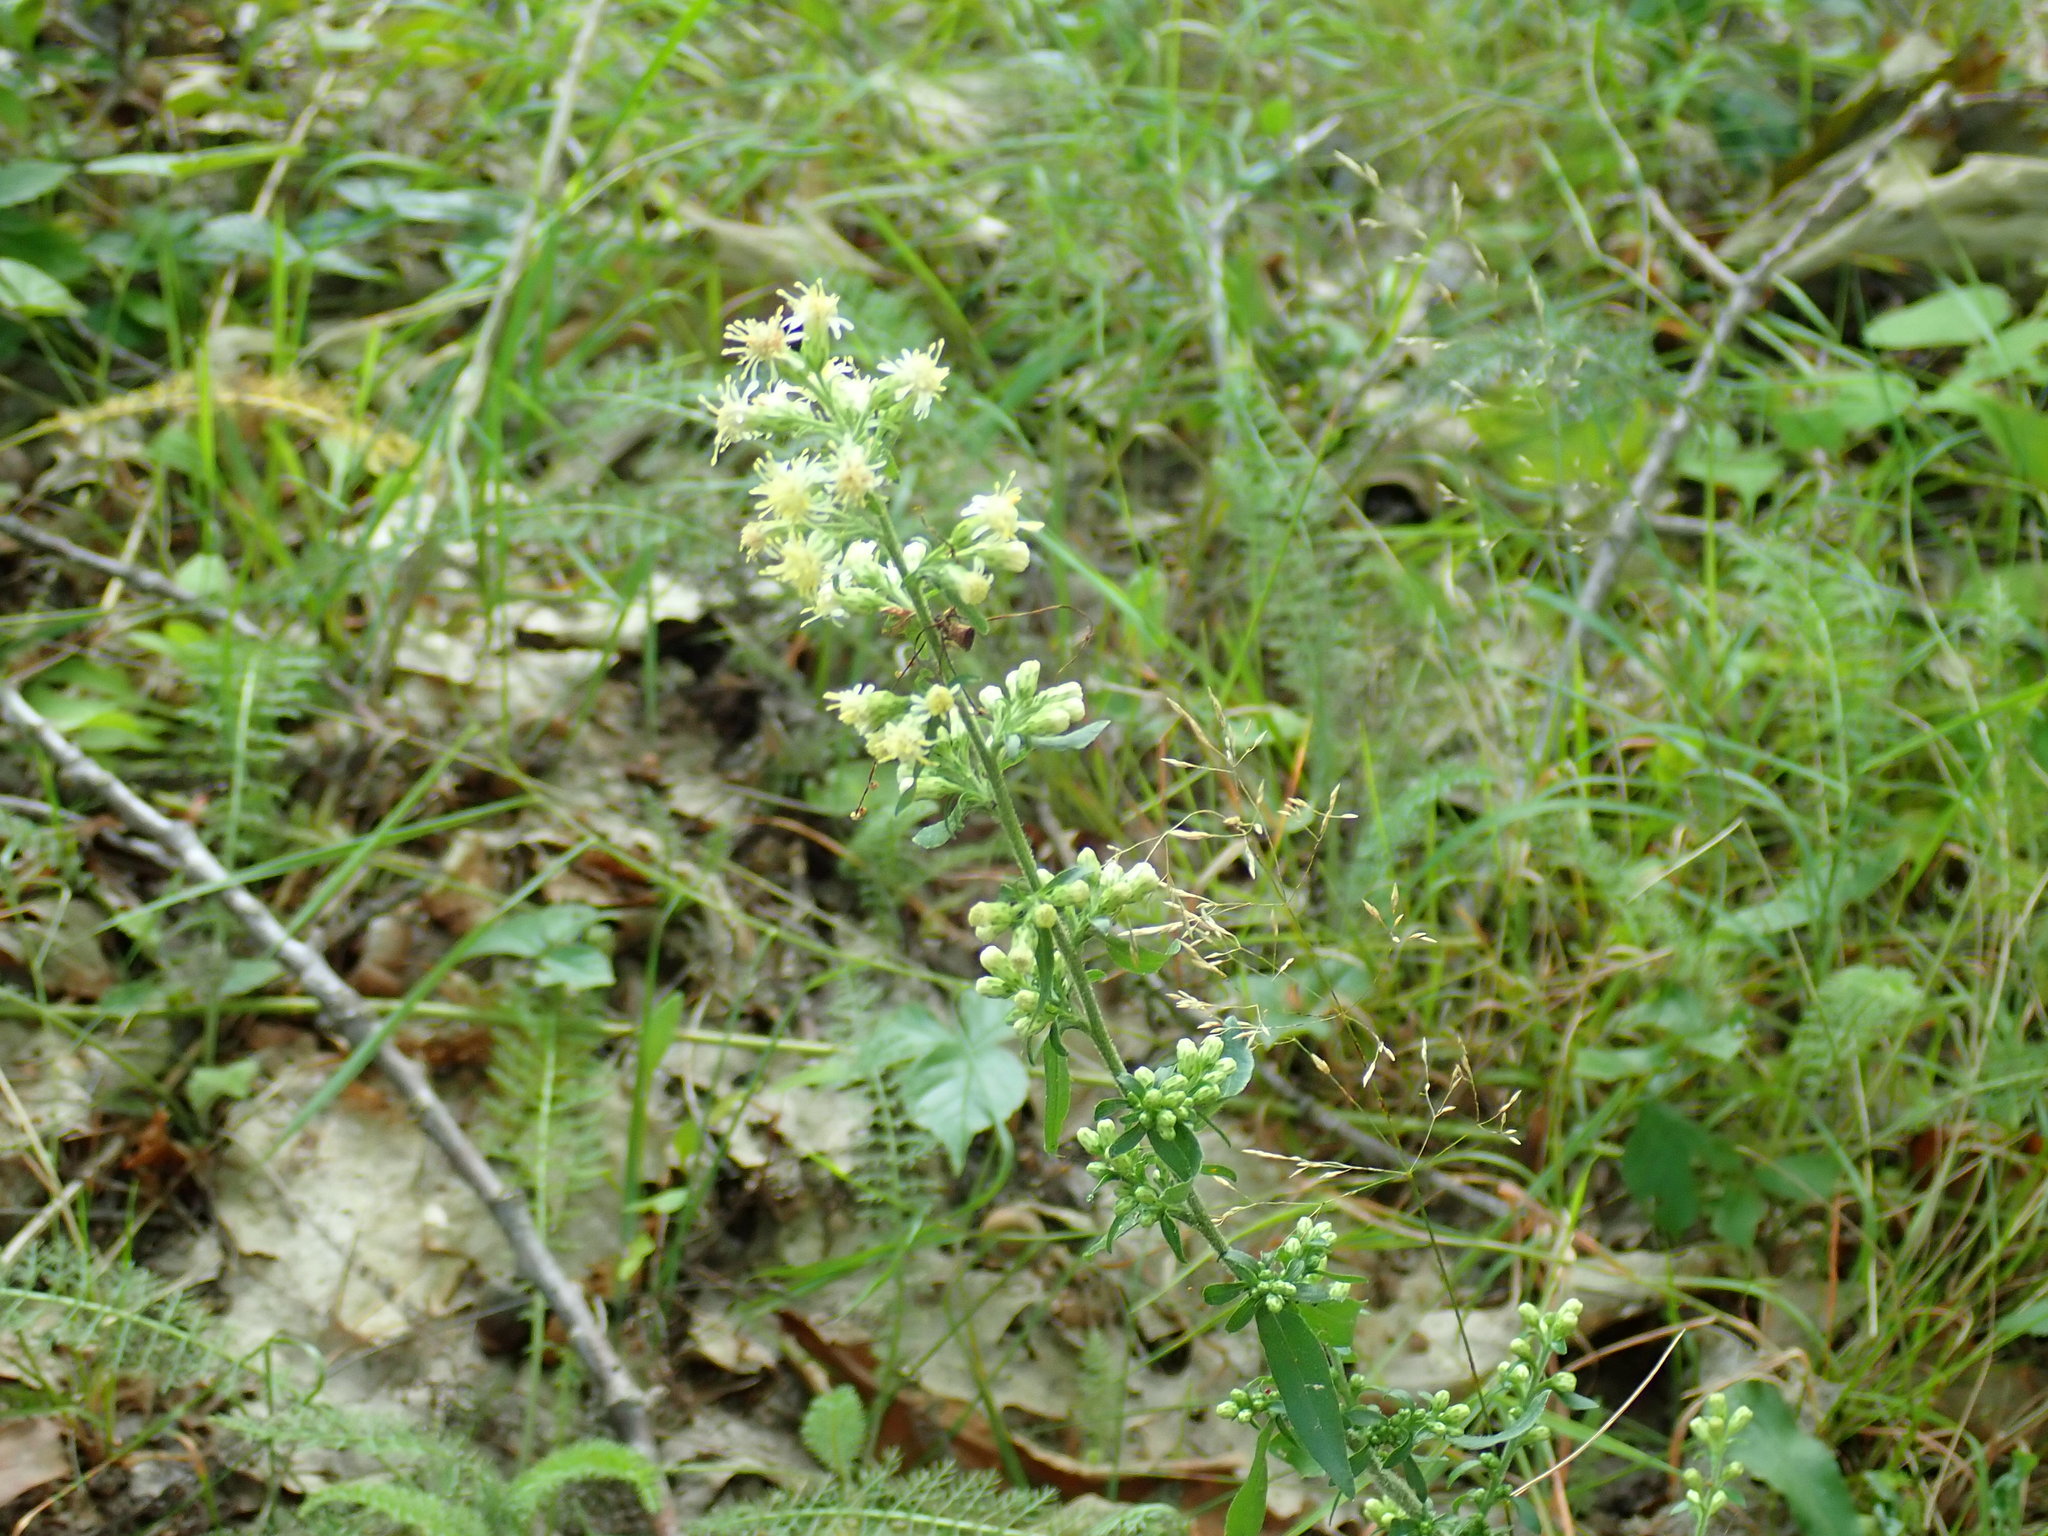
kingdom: Plantae
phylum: Tracheophyta
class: Magnoliopsida
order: Asterales
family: Asteraceae
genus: Solidago
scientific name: Solidago bicolor
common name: Silverrod
